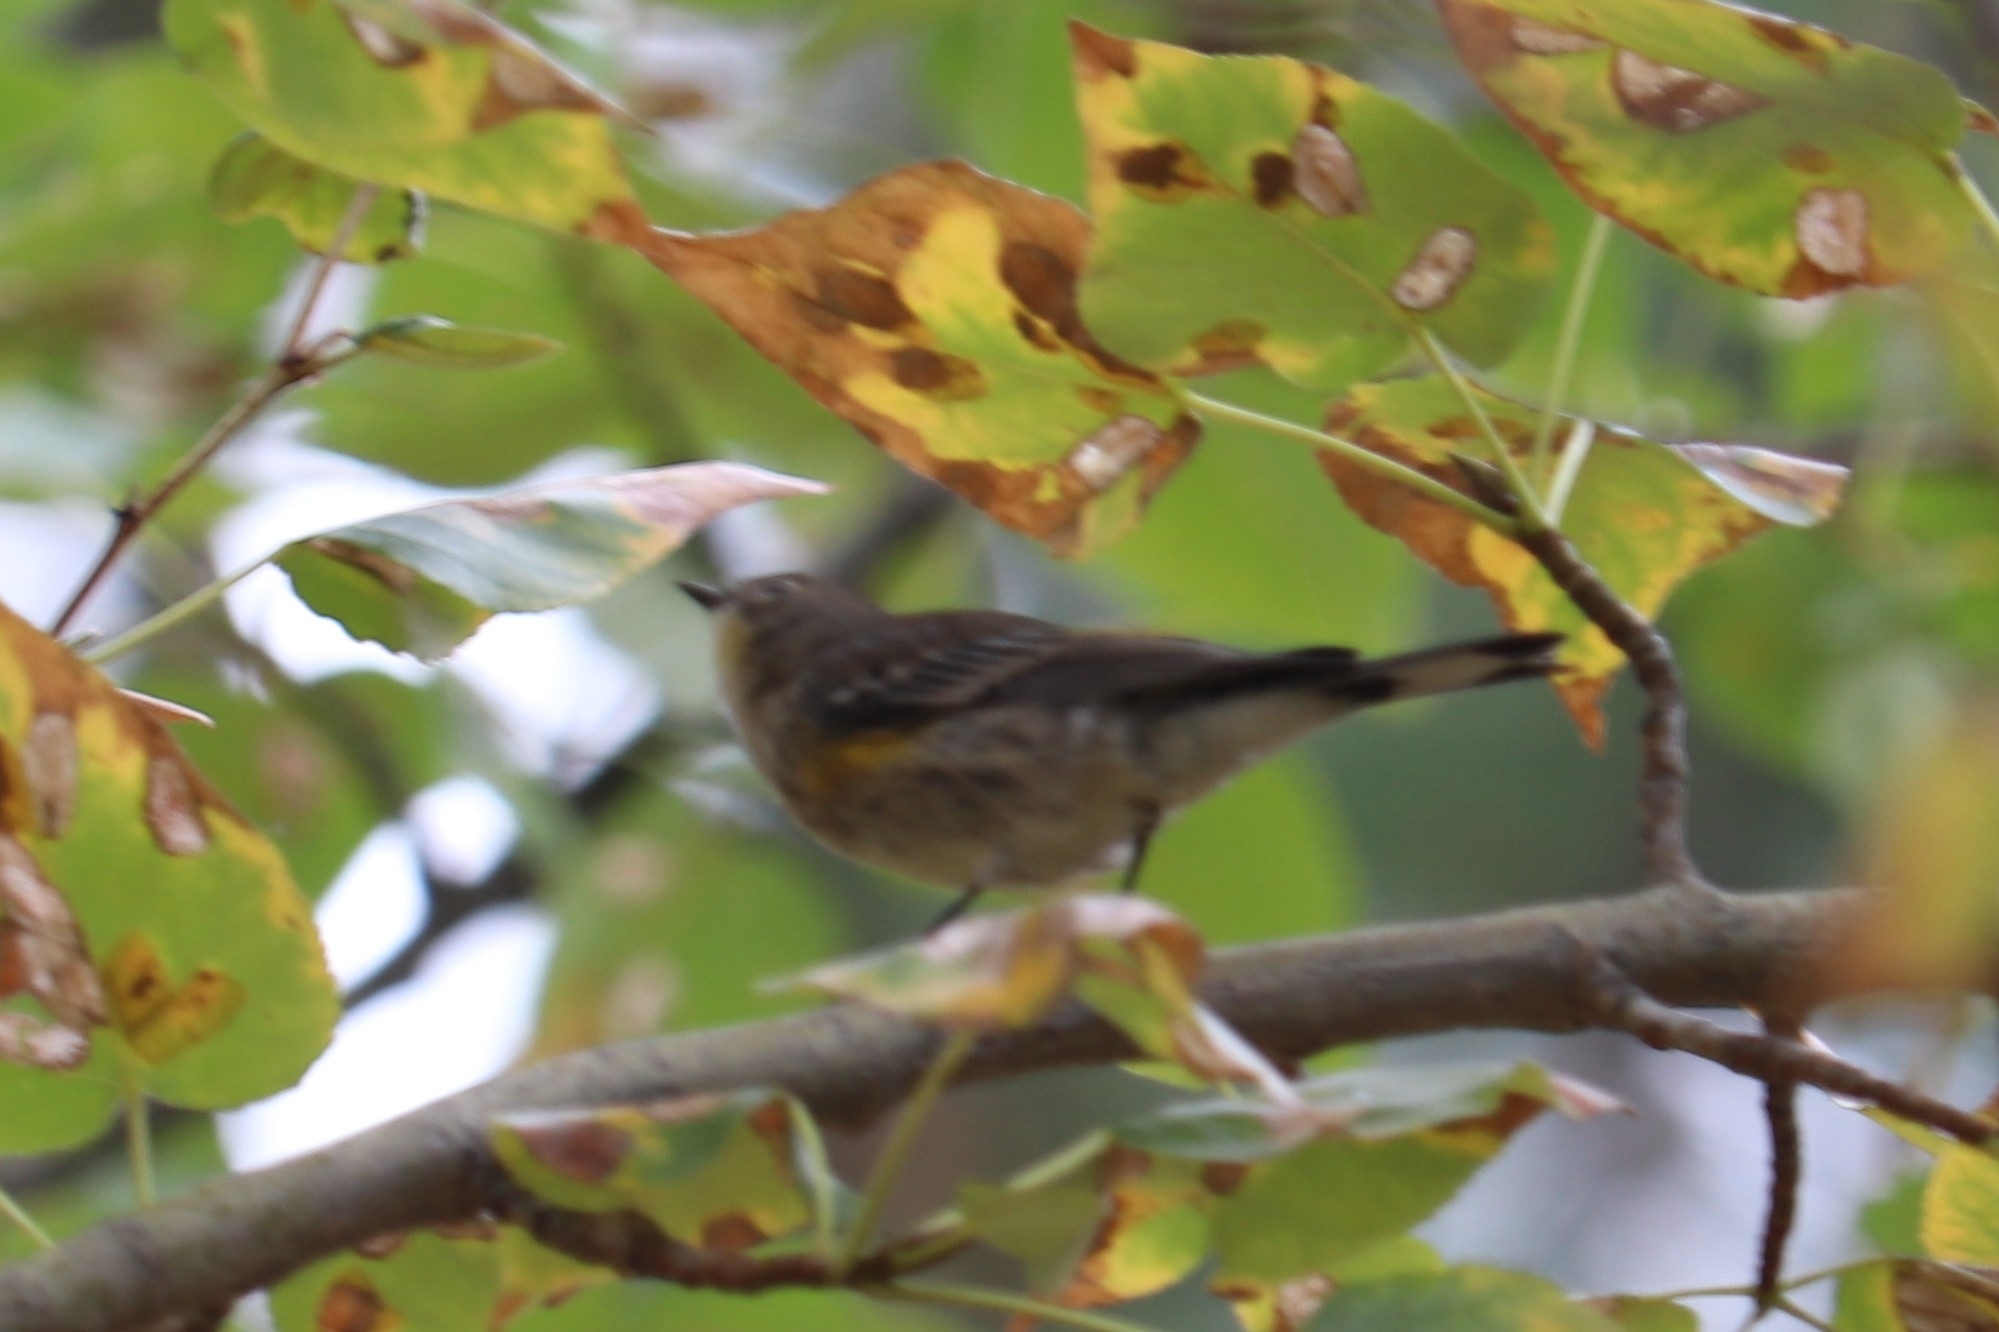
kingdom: Animalia
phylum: Chordata
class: Aves
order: Passeriformes
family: Parulidae
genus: Setophaga
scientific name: Setophaga coronata
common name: Myrtle warbler
